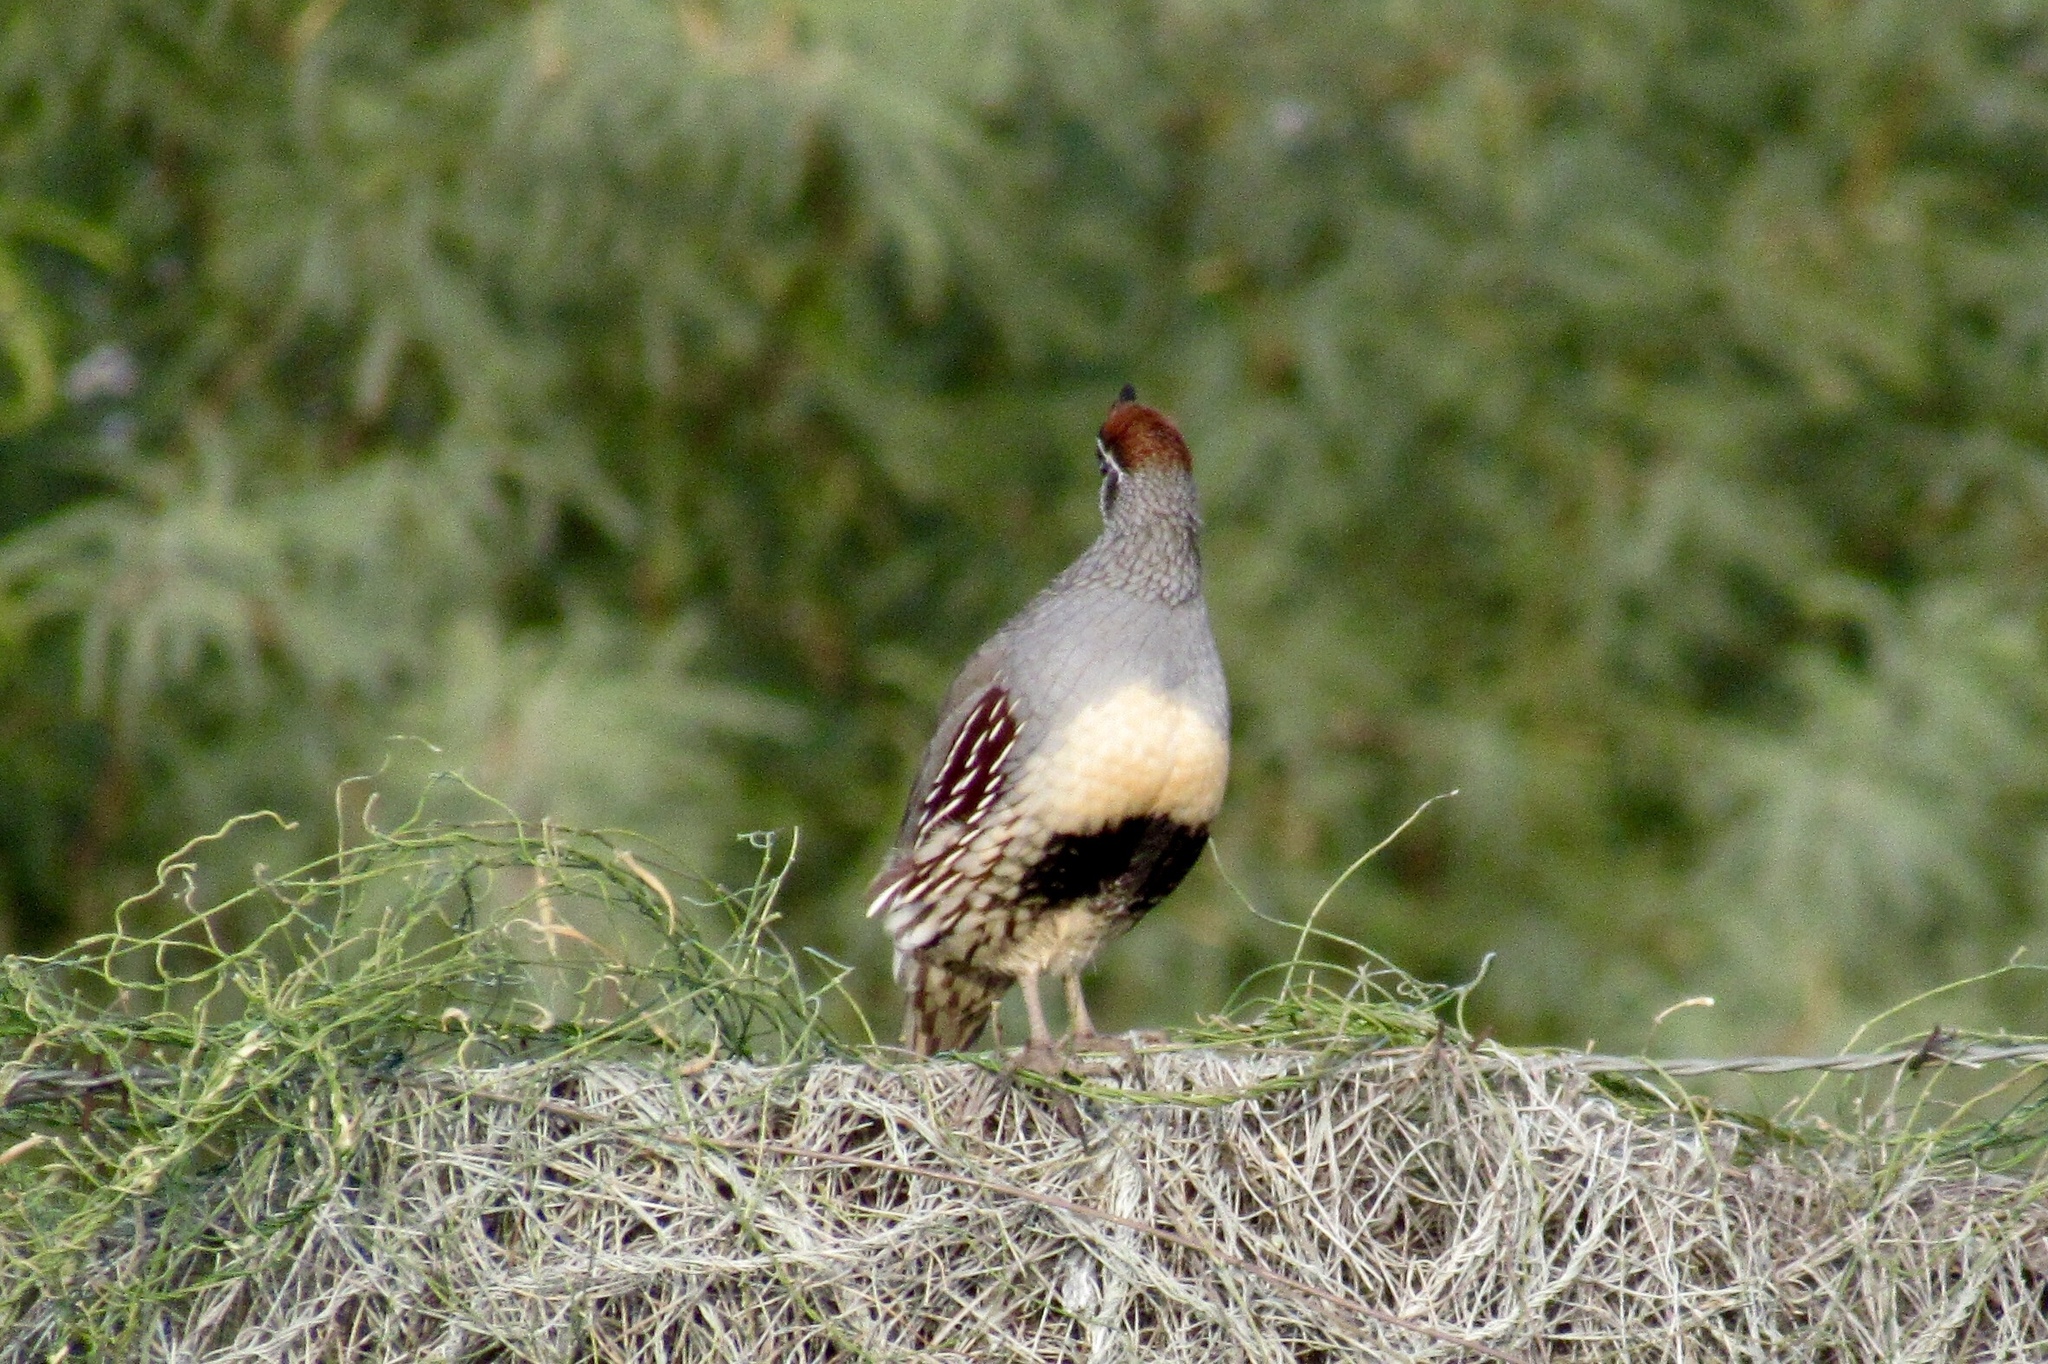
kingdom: Animalia
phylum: Chordata
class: Aves
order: Galliformes
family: Odontophoridae
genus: Callipepla
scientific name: Callipepla gambelii
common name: Gambel's quail
